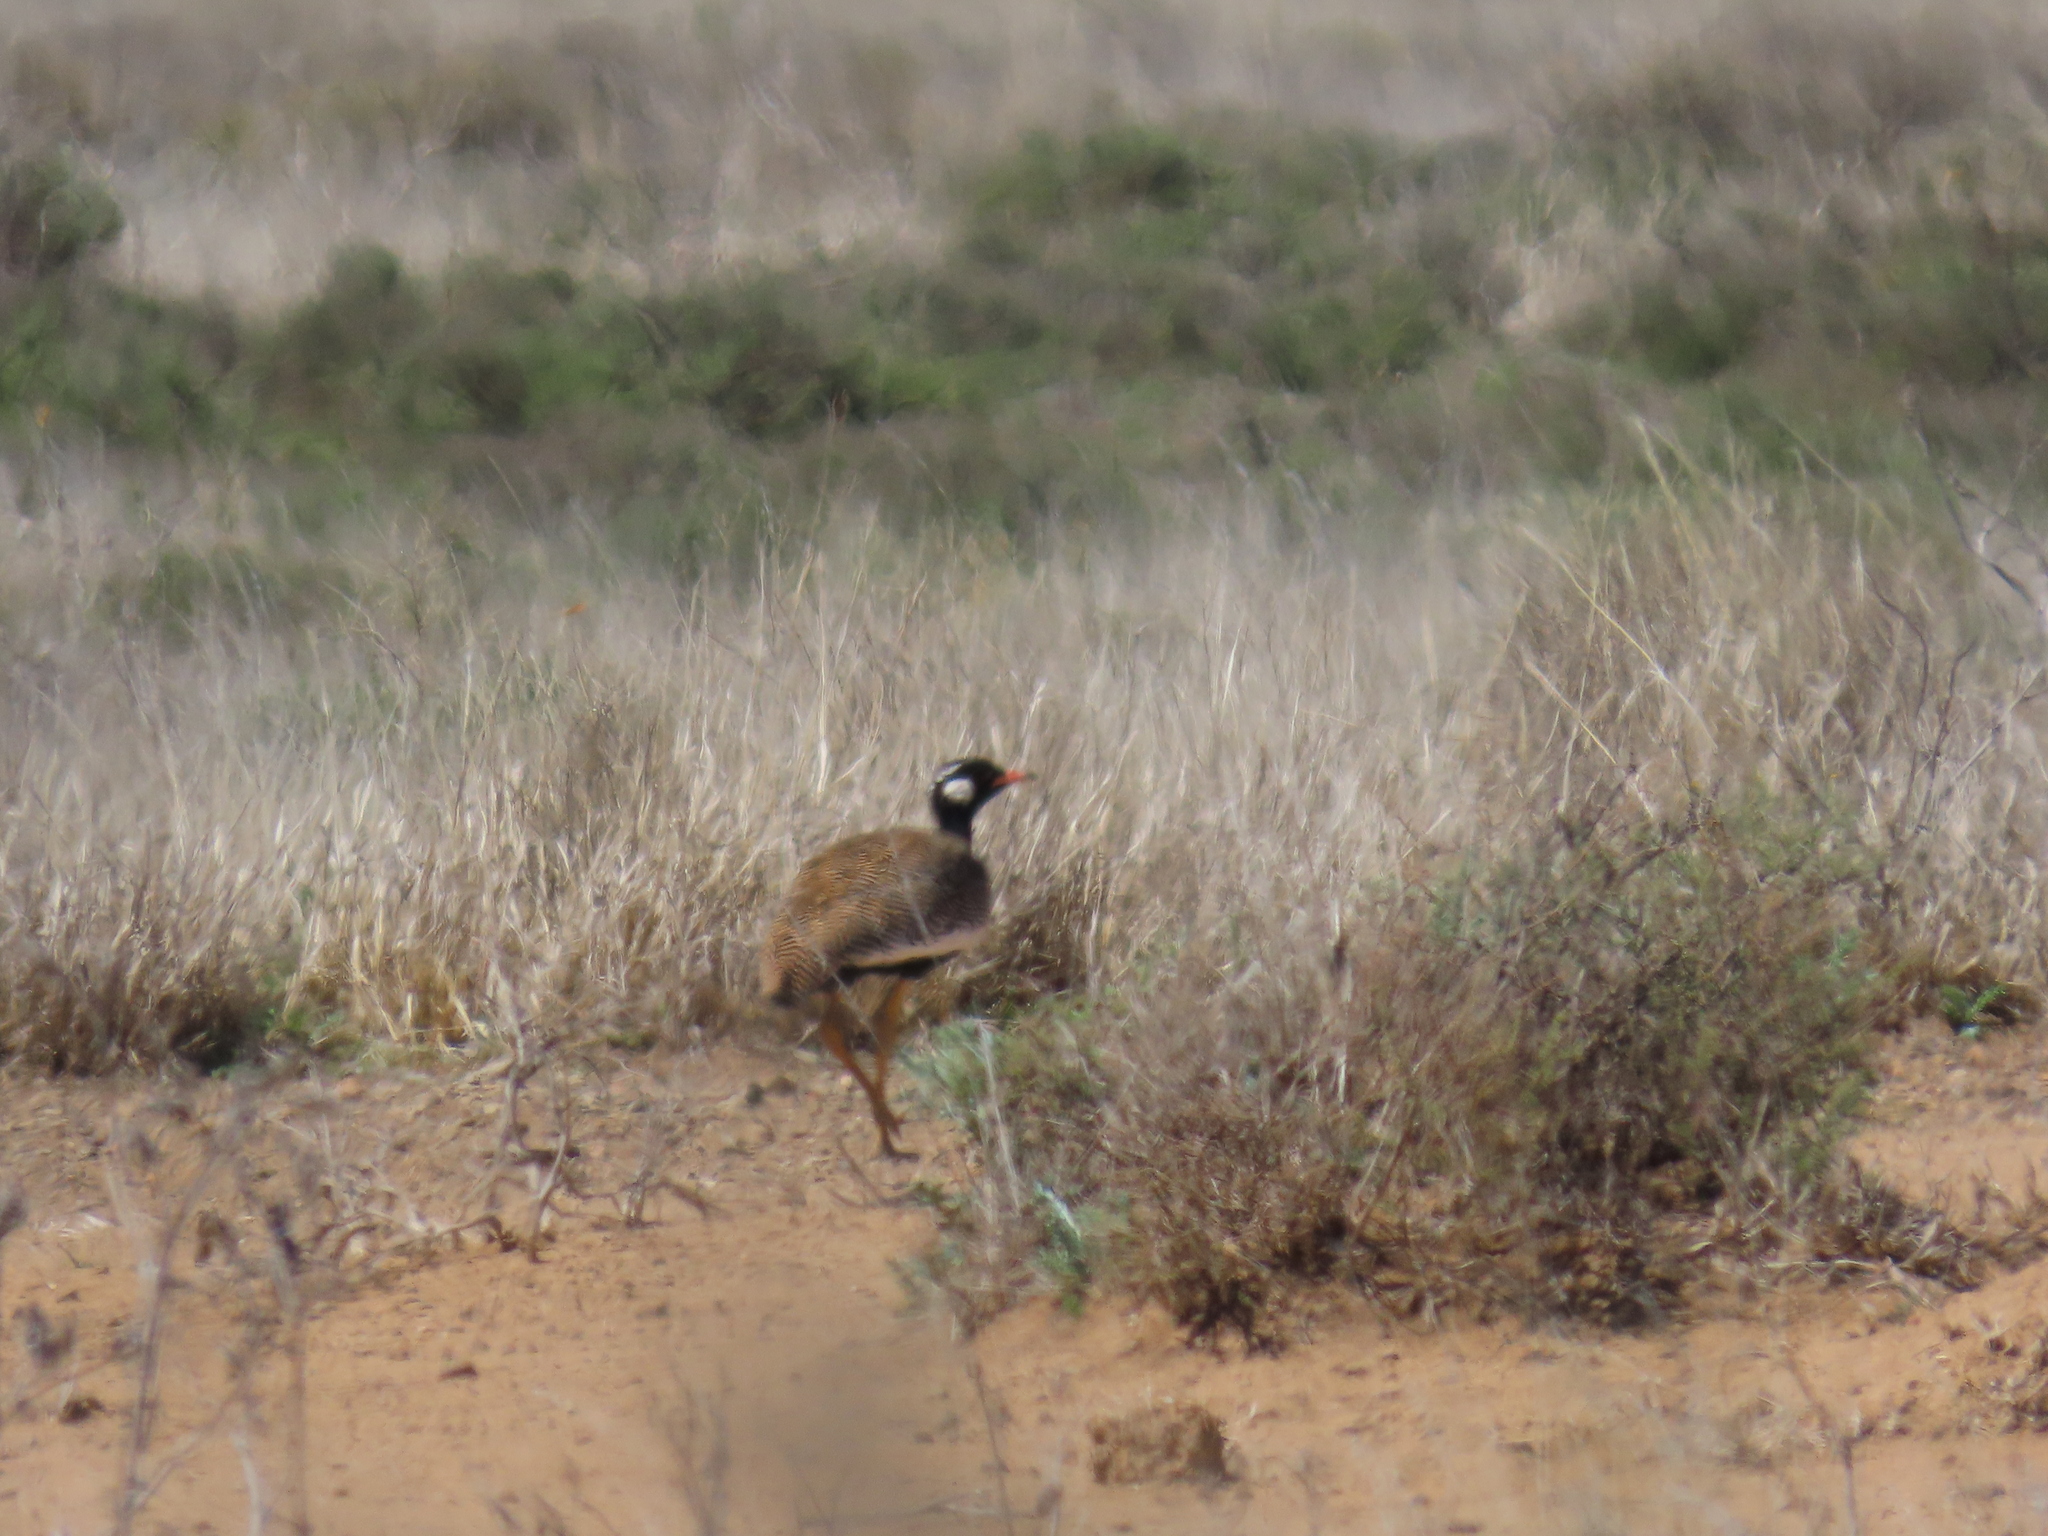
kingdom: Animalia
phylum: Chordata
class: Aves
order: Otidiformes
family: Otididae
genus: Afrotis
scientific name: Afrotis afraoides
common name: Northern black korhaan
